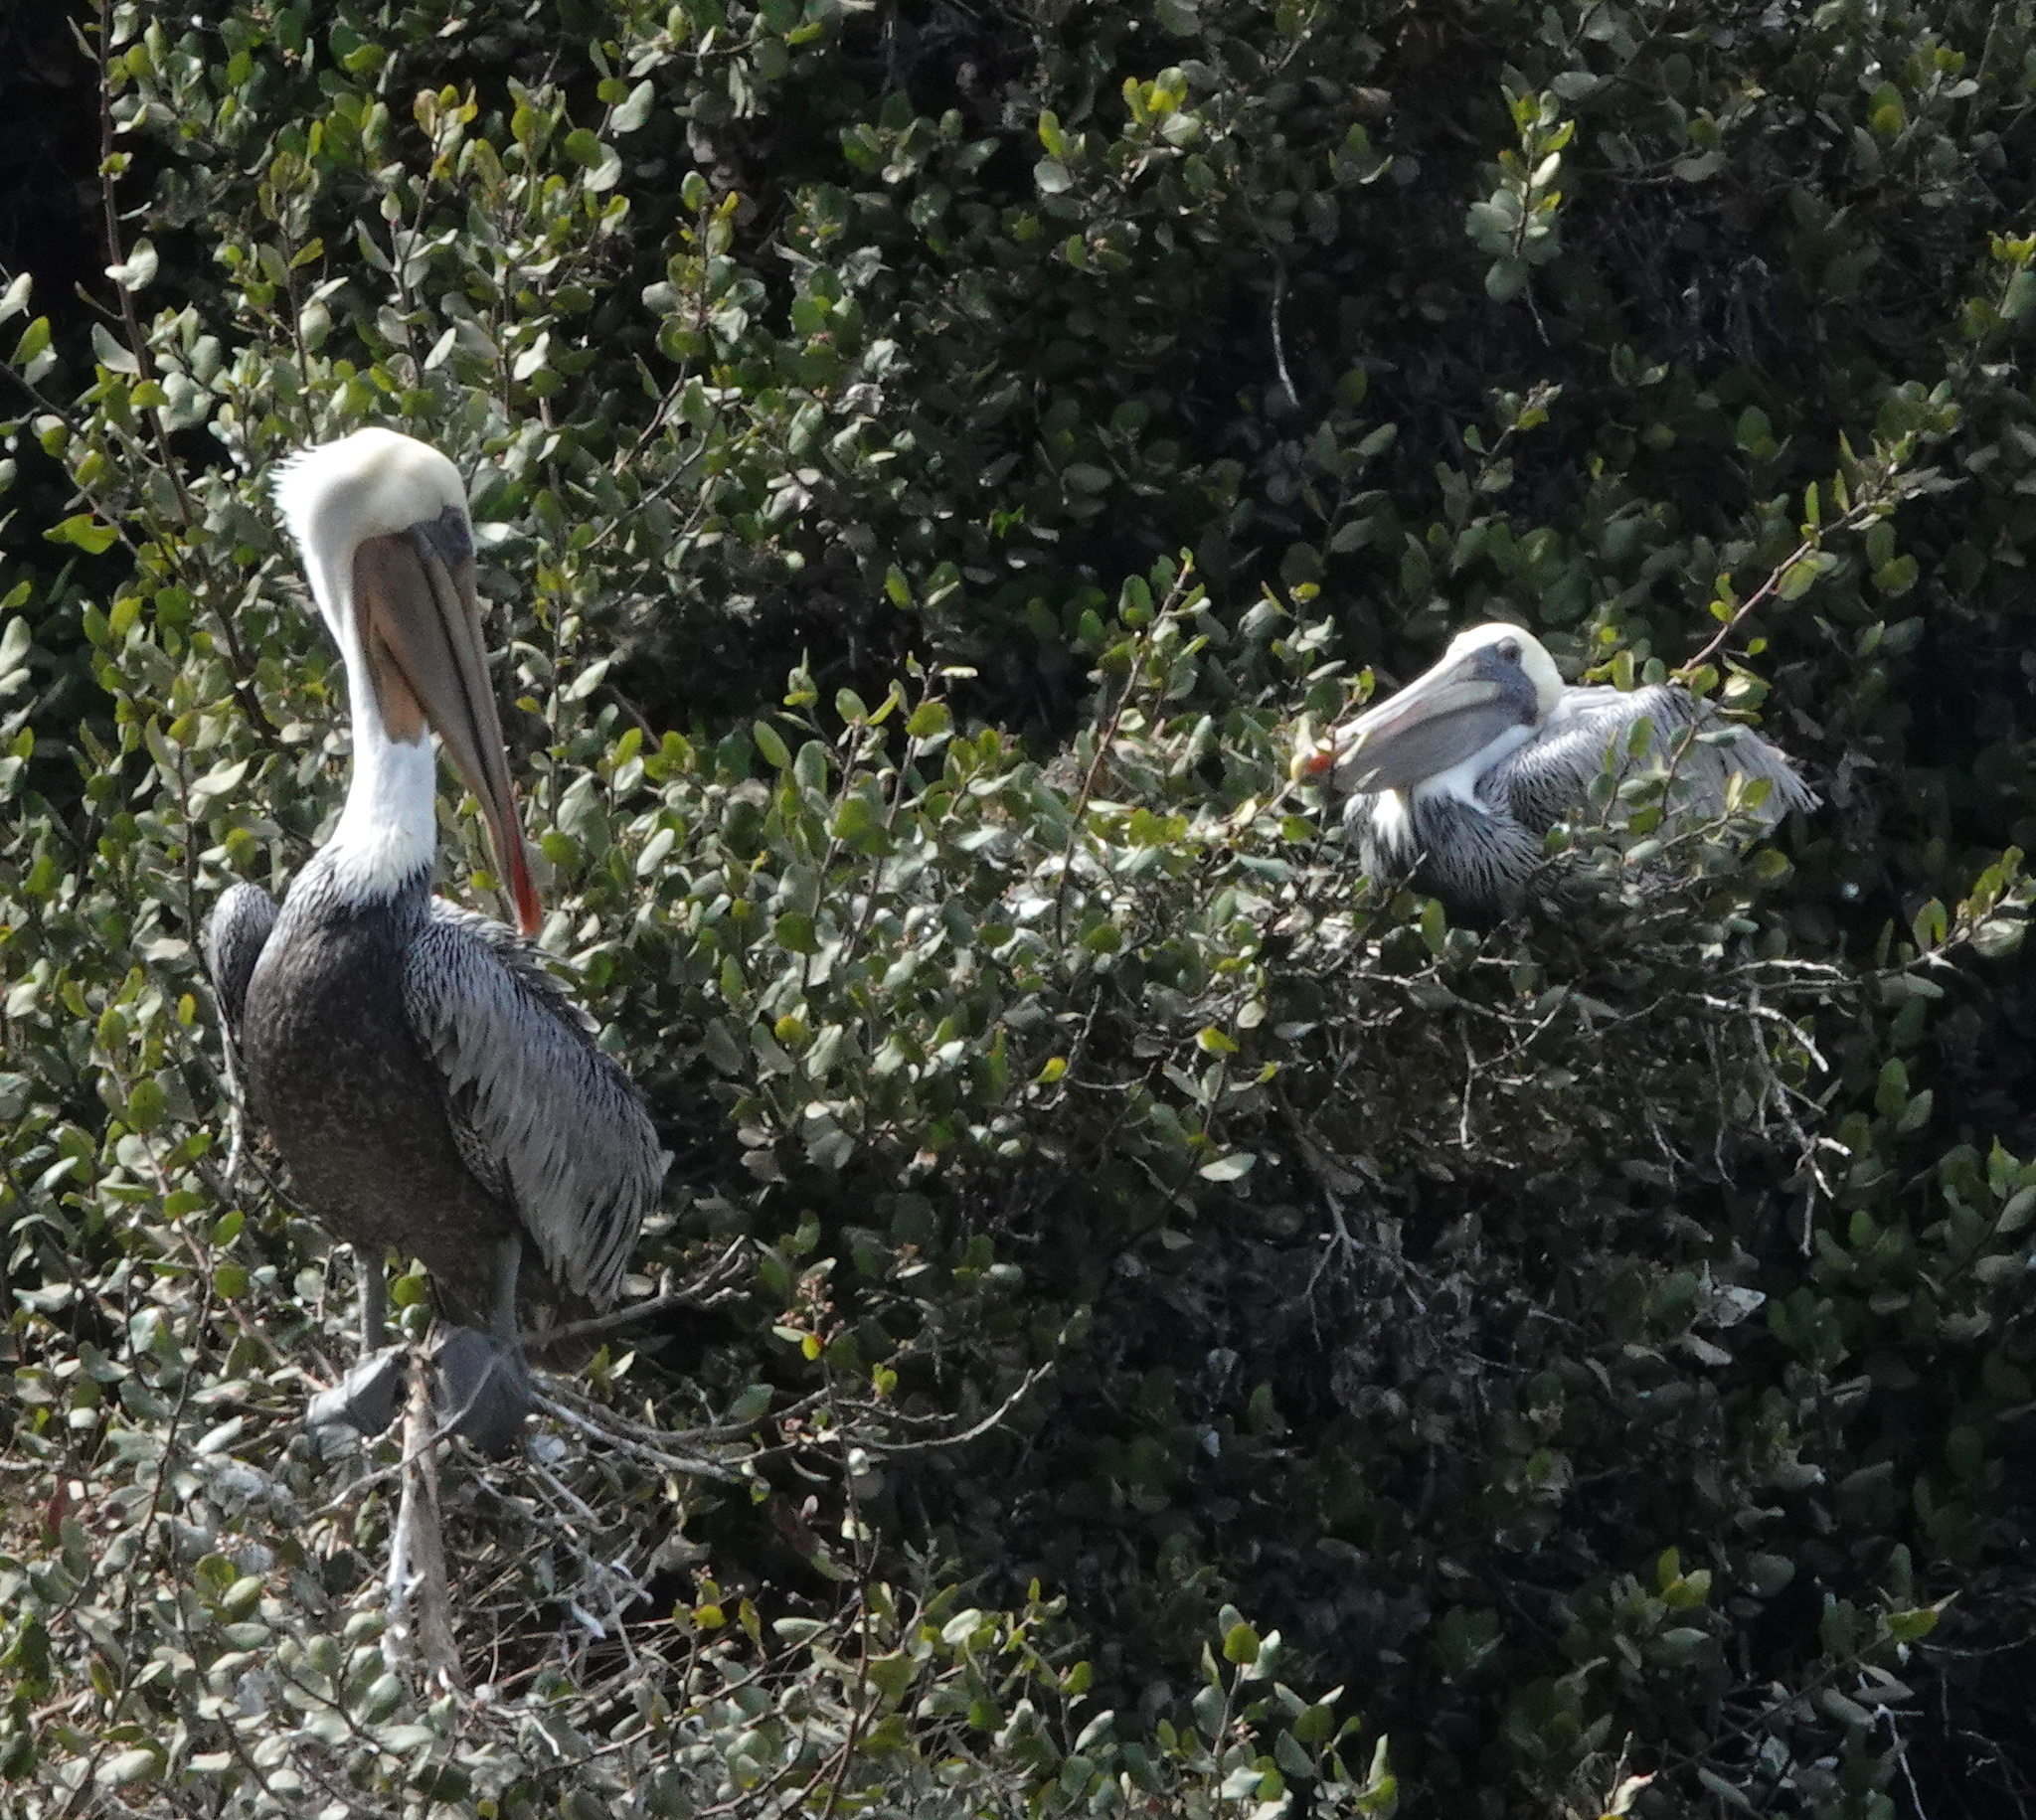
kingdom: Animalia
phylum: Chordata
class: Aves
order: Pelecaniformes
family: Pelecanidae
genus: Pelecanus
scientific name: Pelecanus occidentalis
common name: Brown pelican
